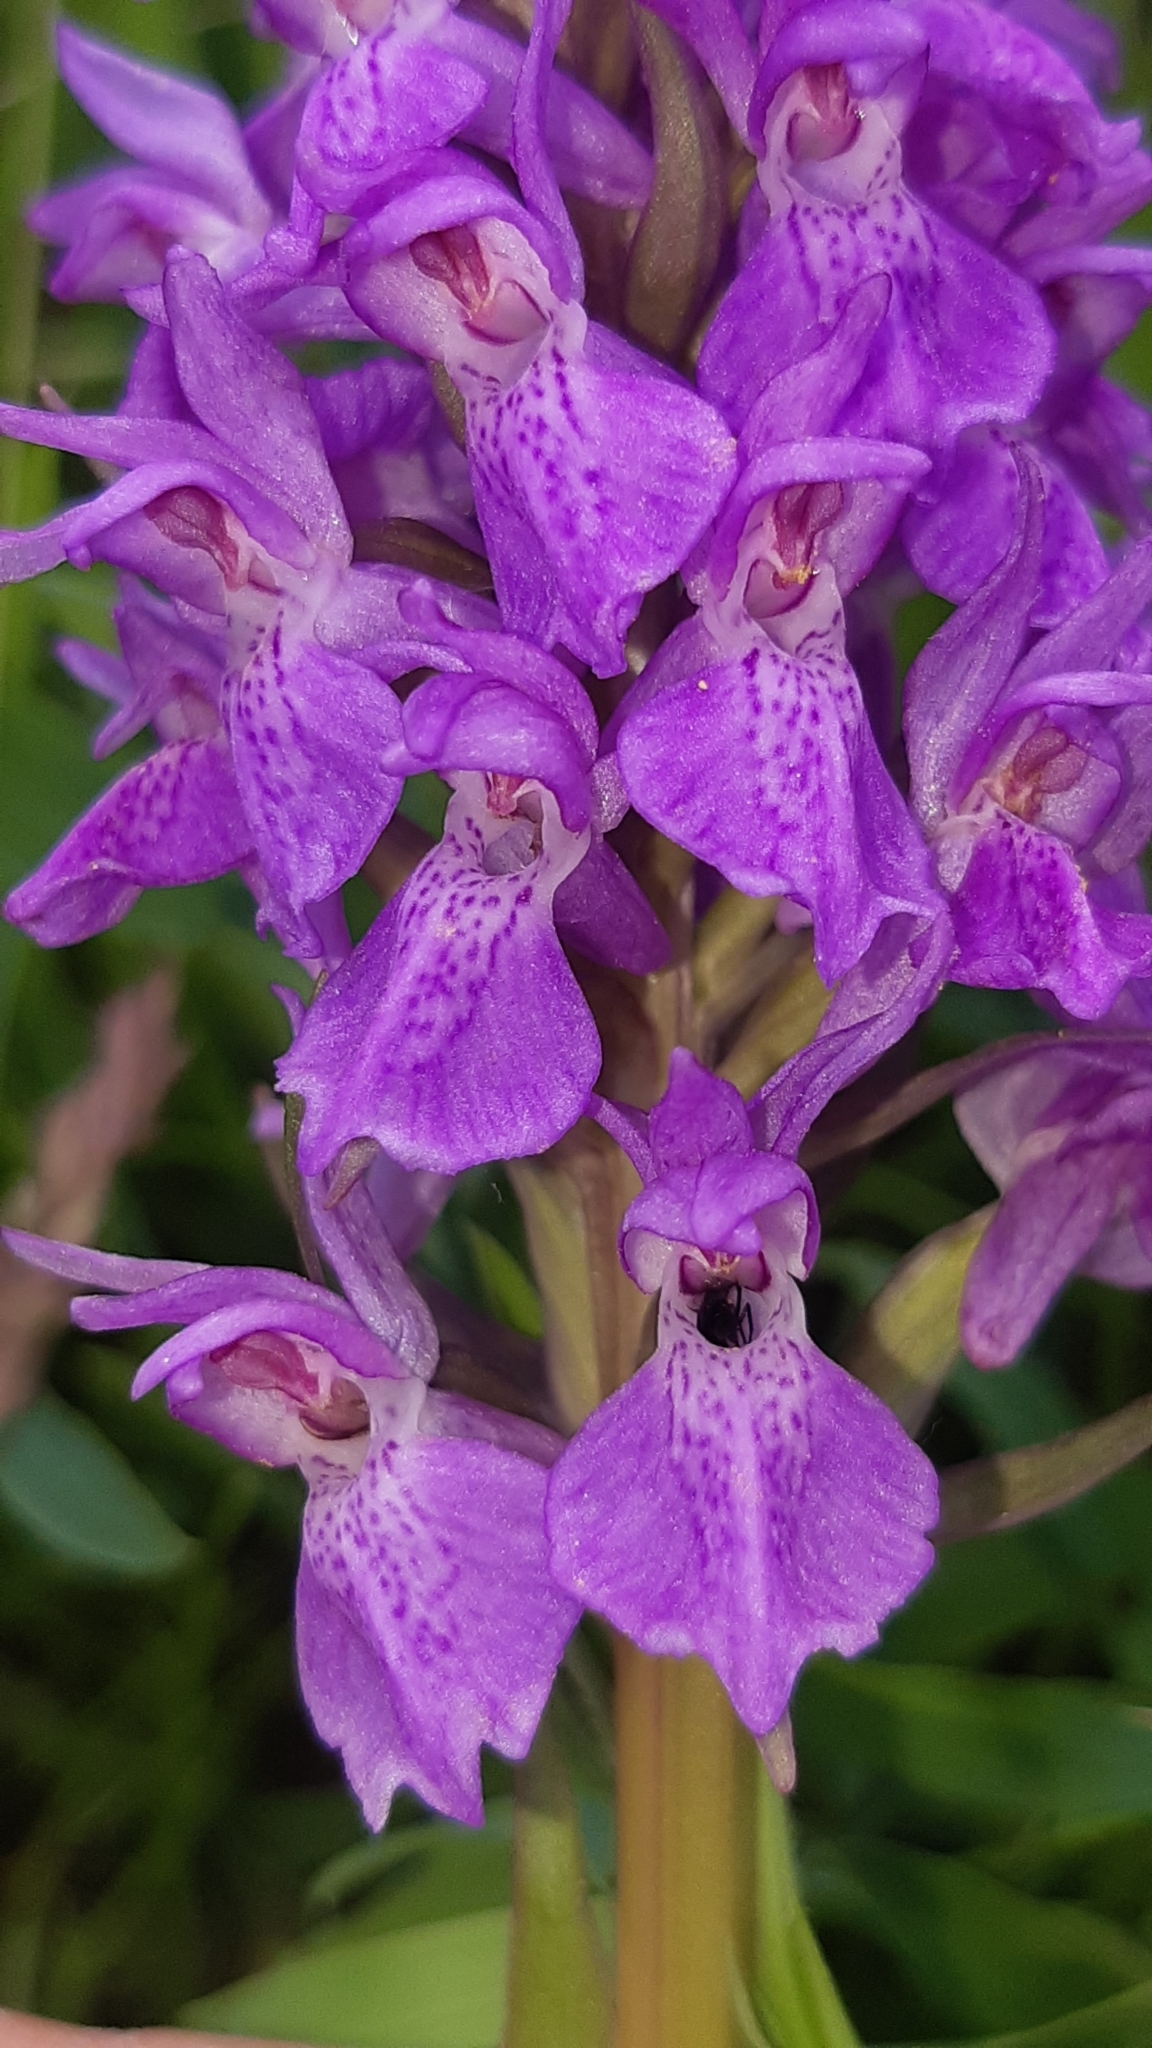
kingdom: Plantae
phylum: Tracheophyta
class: Liliopsida
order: Asparagales
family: Orchidaceae
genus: Dactylorhiza
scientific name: Dactylorhiza majalis
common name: Marsh orchid
